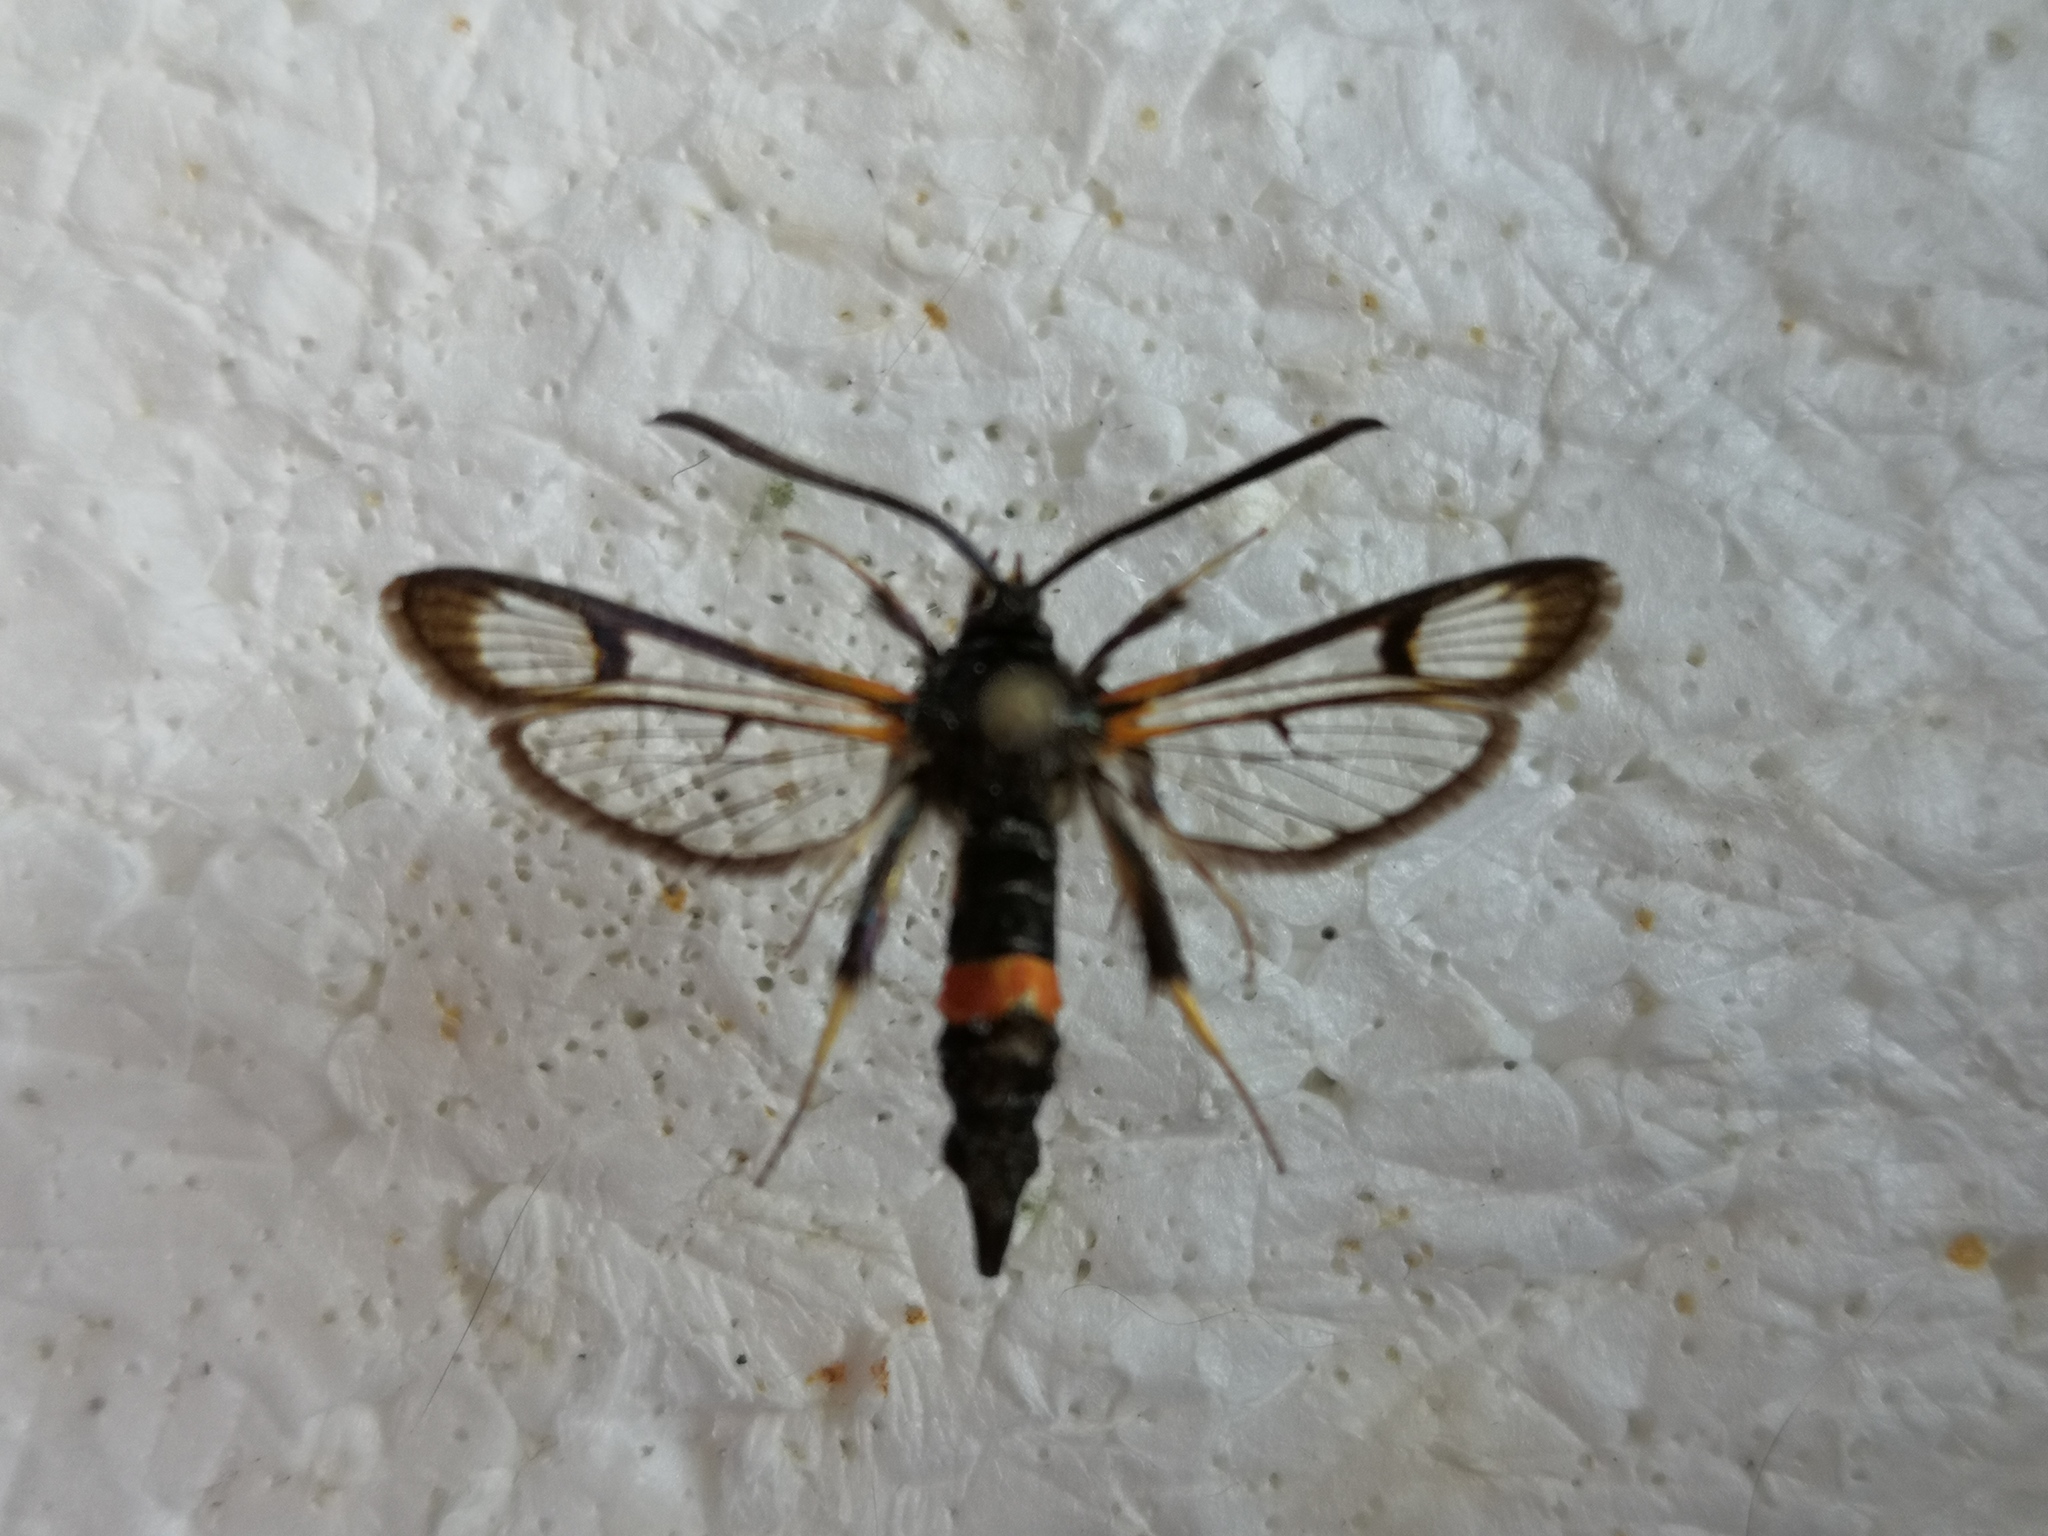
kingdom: Animalia
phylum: Arthropoda
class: Insecta
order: Lepidoptera
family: Sesiidae
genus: Synanthedon
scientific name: Synanthedon culiciformis
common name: Large red-belted clearwing
